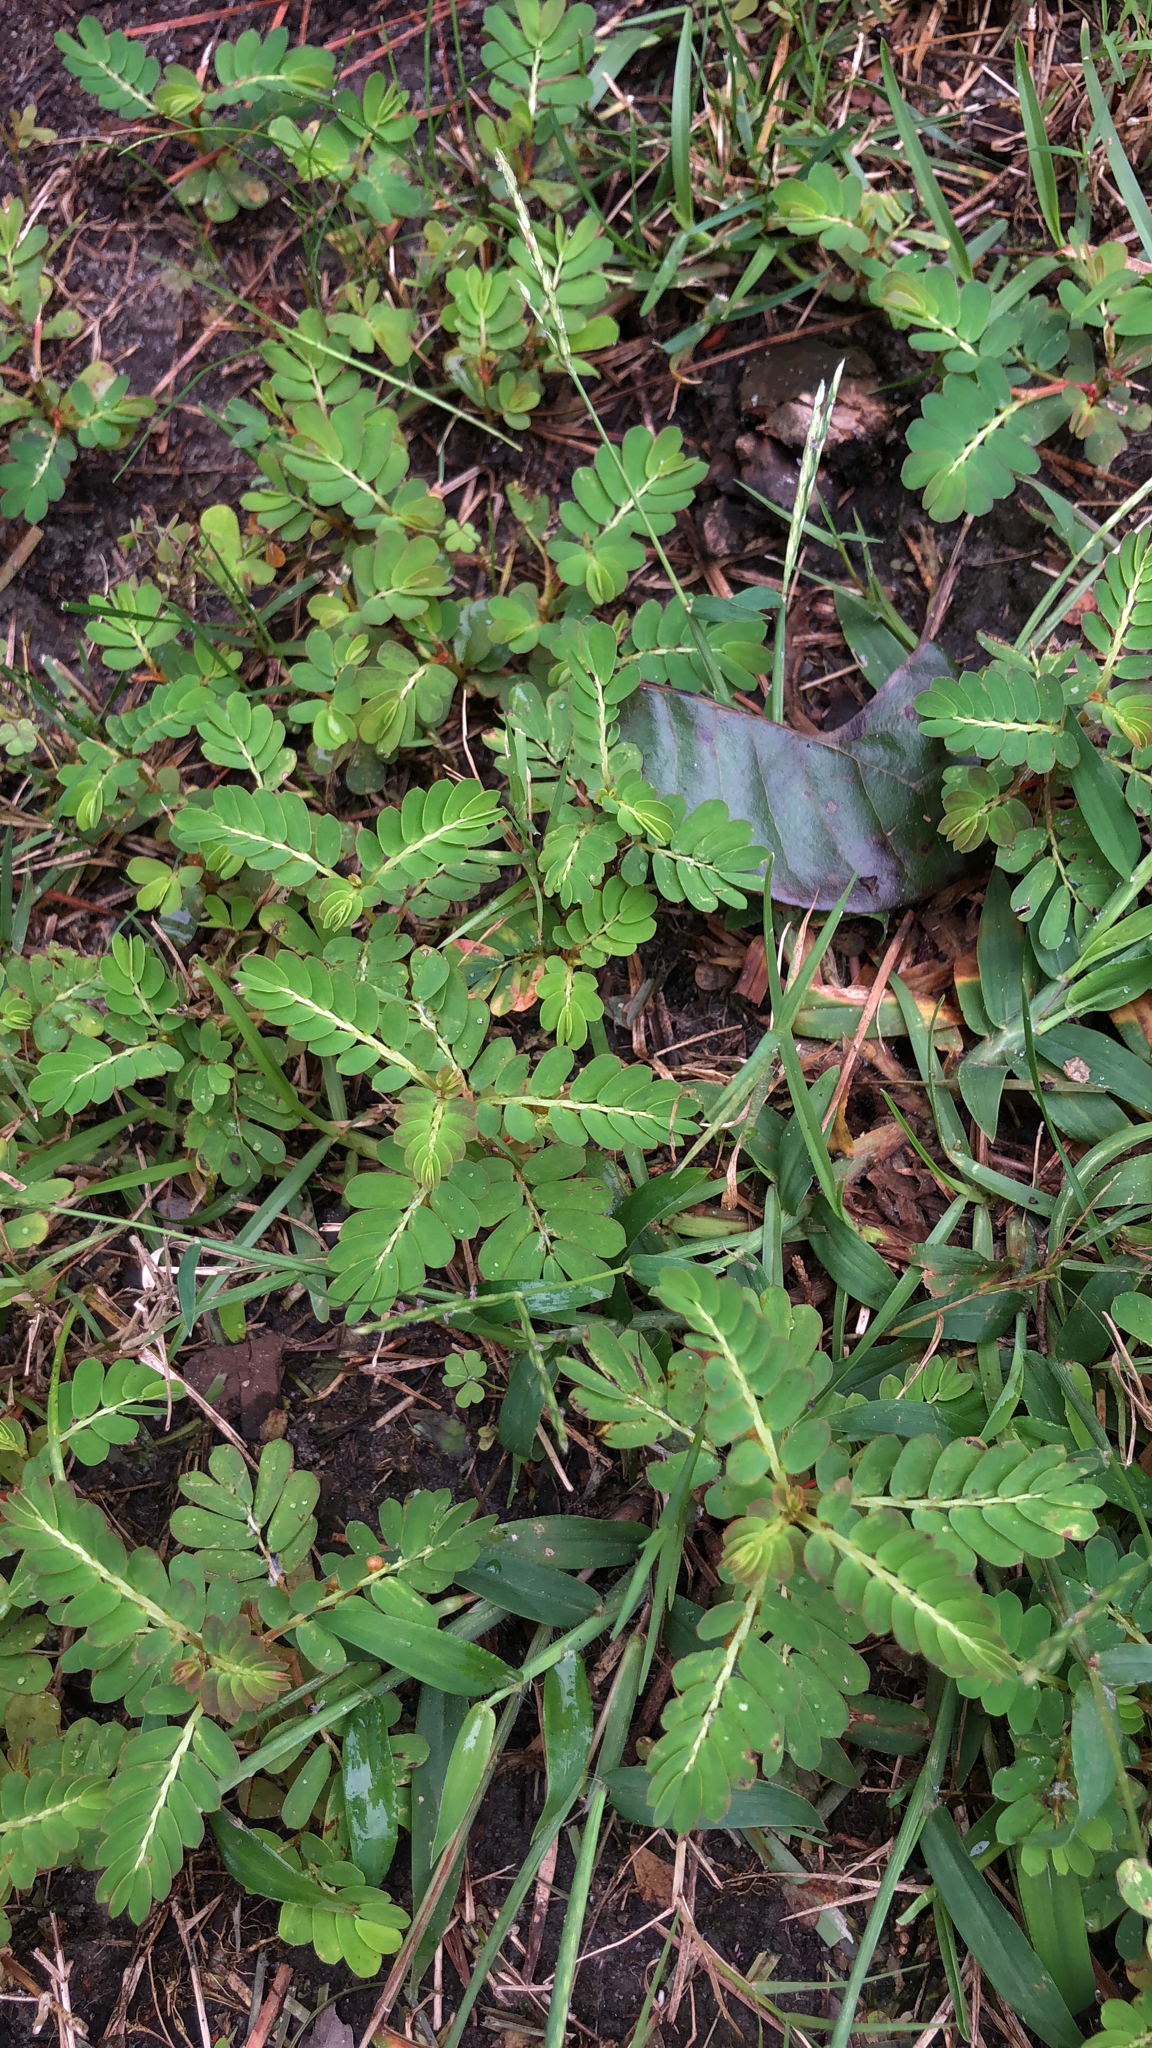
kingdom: Plantae
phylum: Tracheophyta
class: Magnoliopsida
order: Malpighiales
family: Phyllanthaceae
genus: Phyllanthus
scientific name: Phyllanthus urinaria
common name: Chamber bitter
